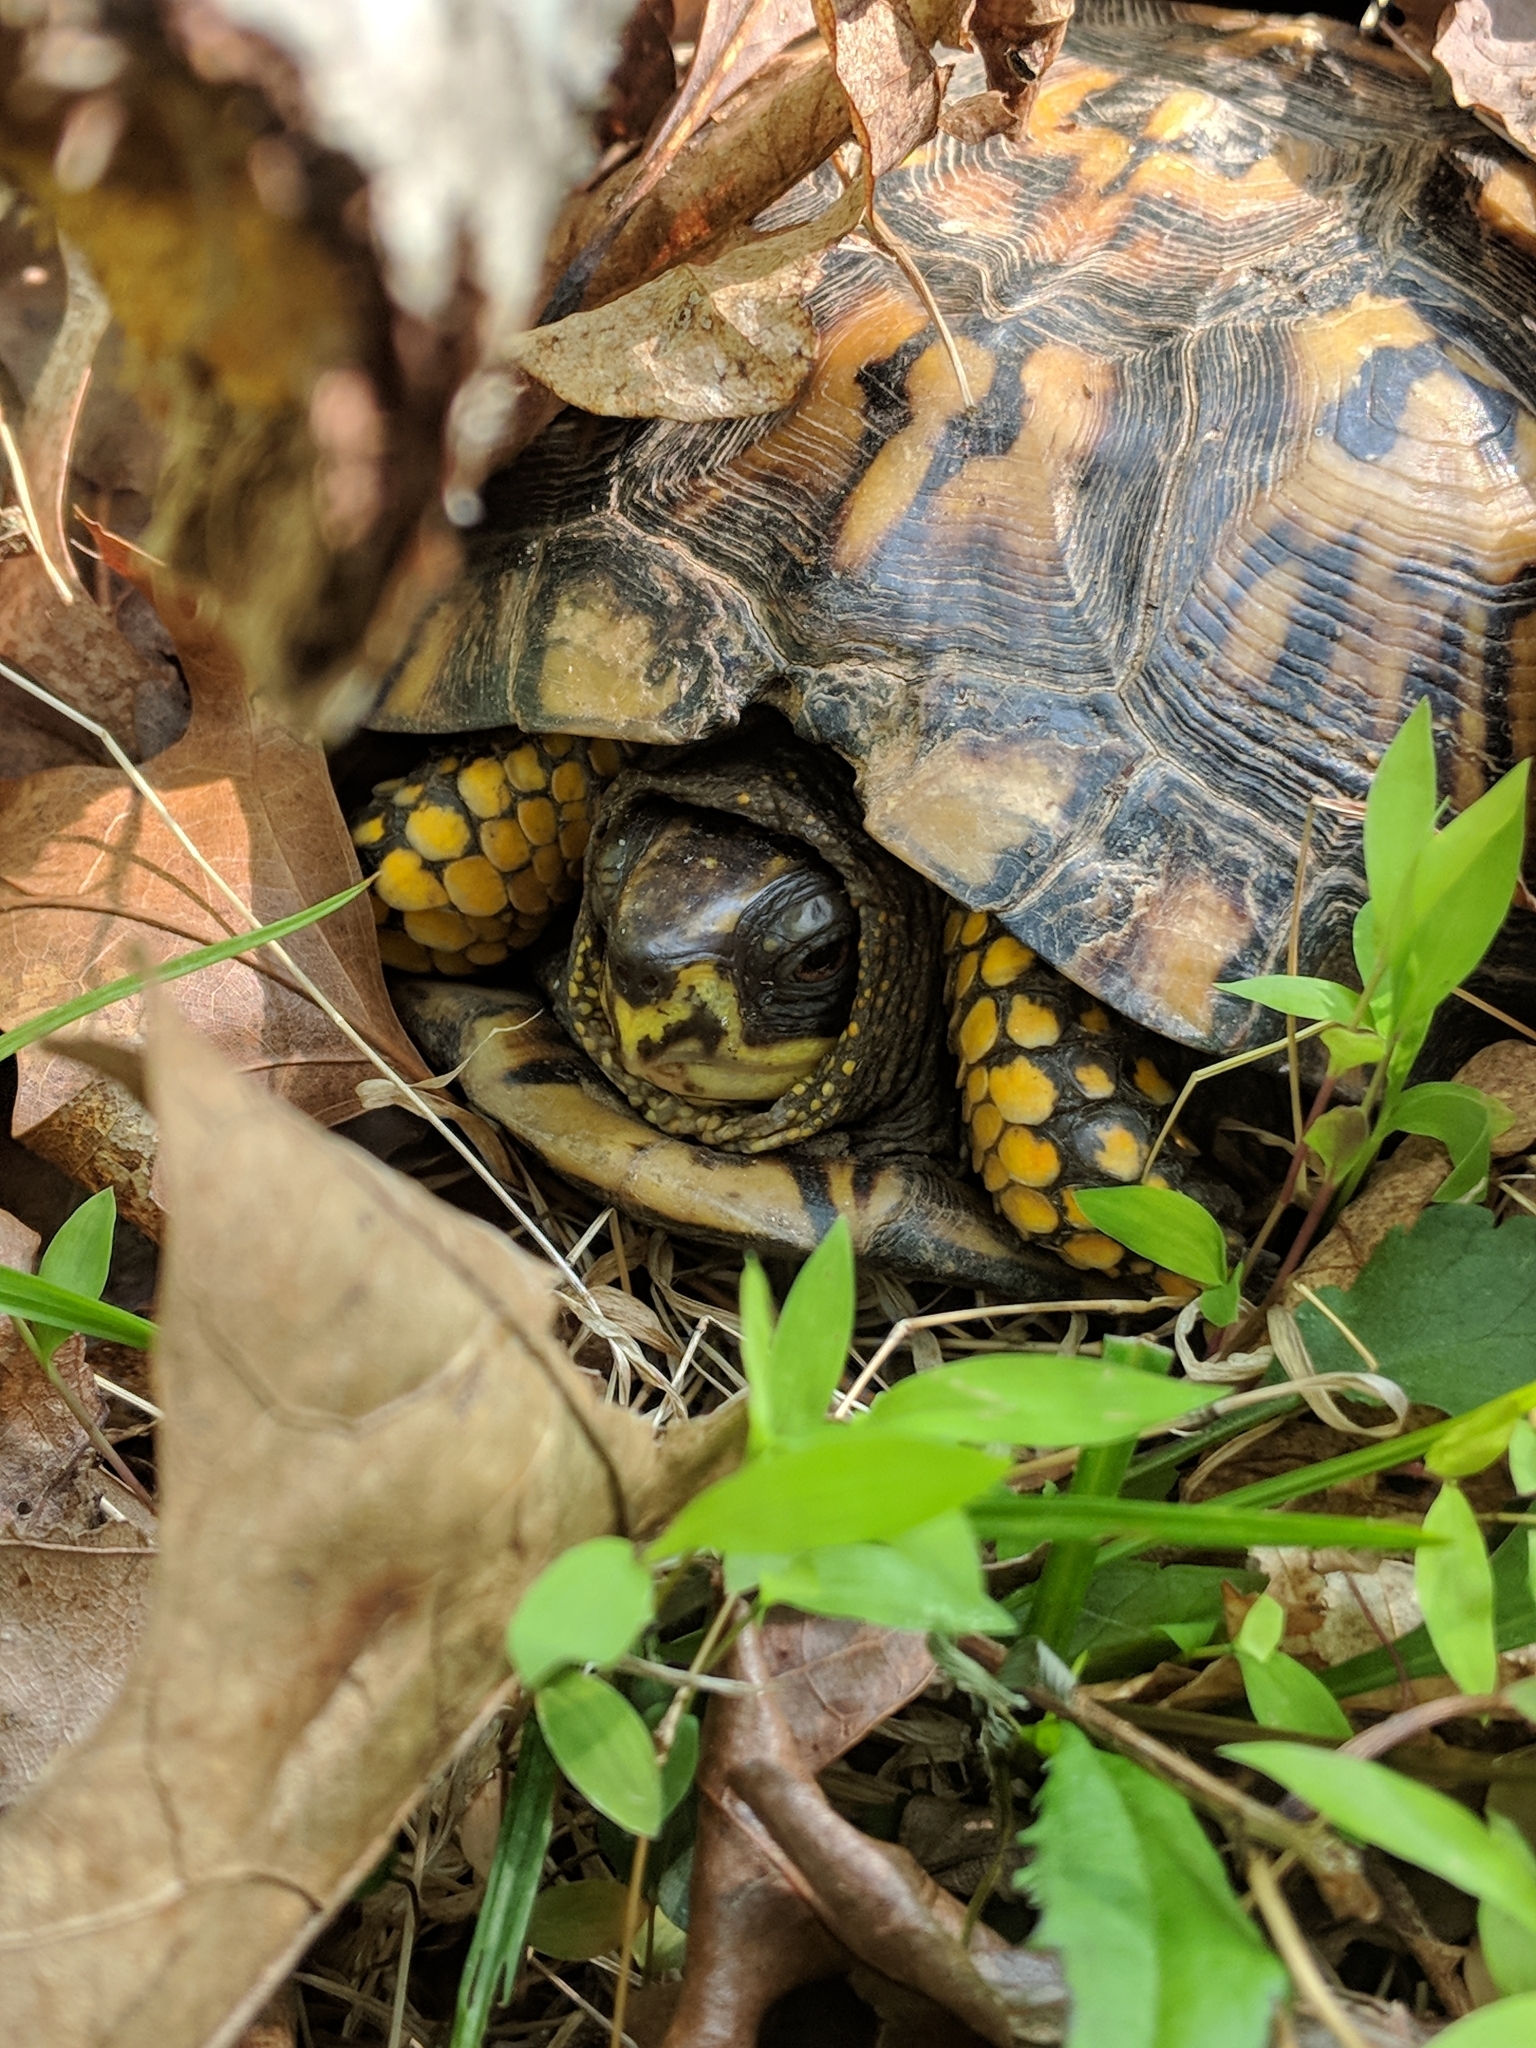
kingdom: Animalia
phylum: Chordata
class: Testudines
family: Emydidae
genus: Terrapene
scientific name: Terrapene carolina
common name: Common box turtle
